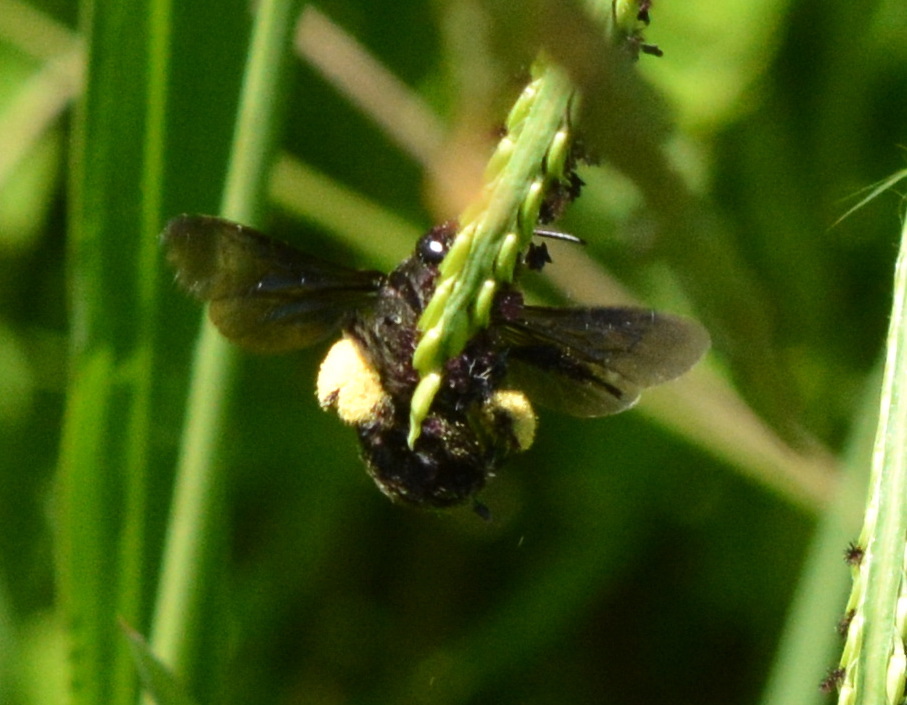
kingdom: Animalia
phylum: Arthropoda
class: Insecta
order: Hymenoptera
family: Apidae
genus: Melissodes
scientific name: Melissodes bimaculatus
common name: Two-spotted long-horned bee
